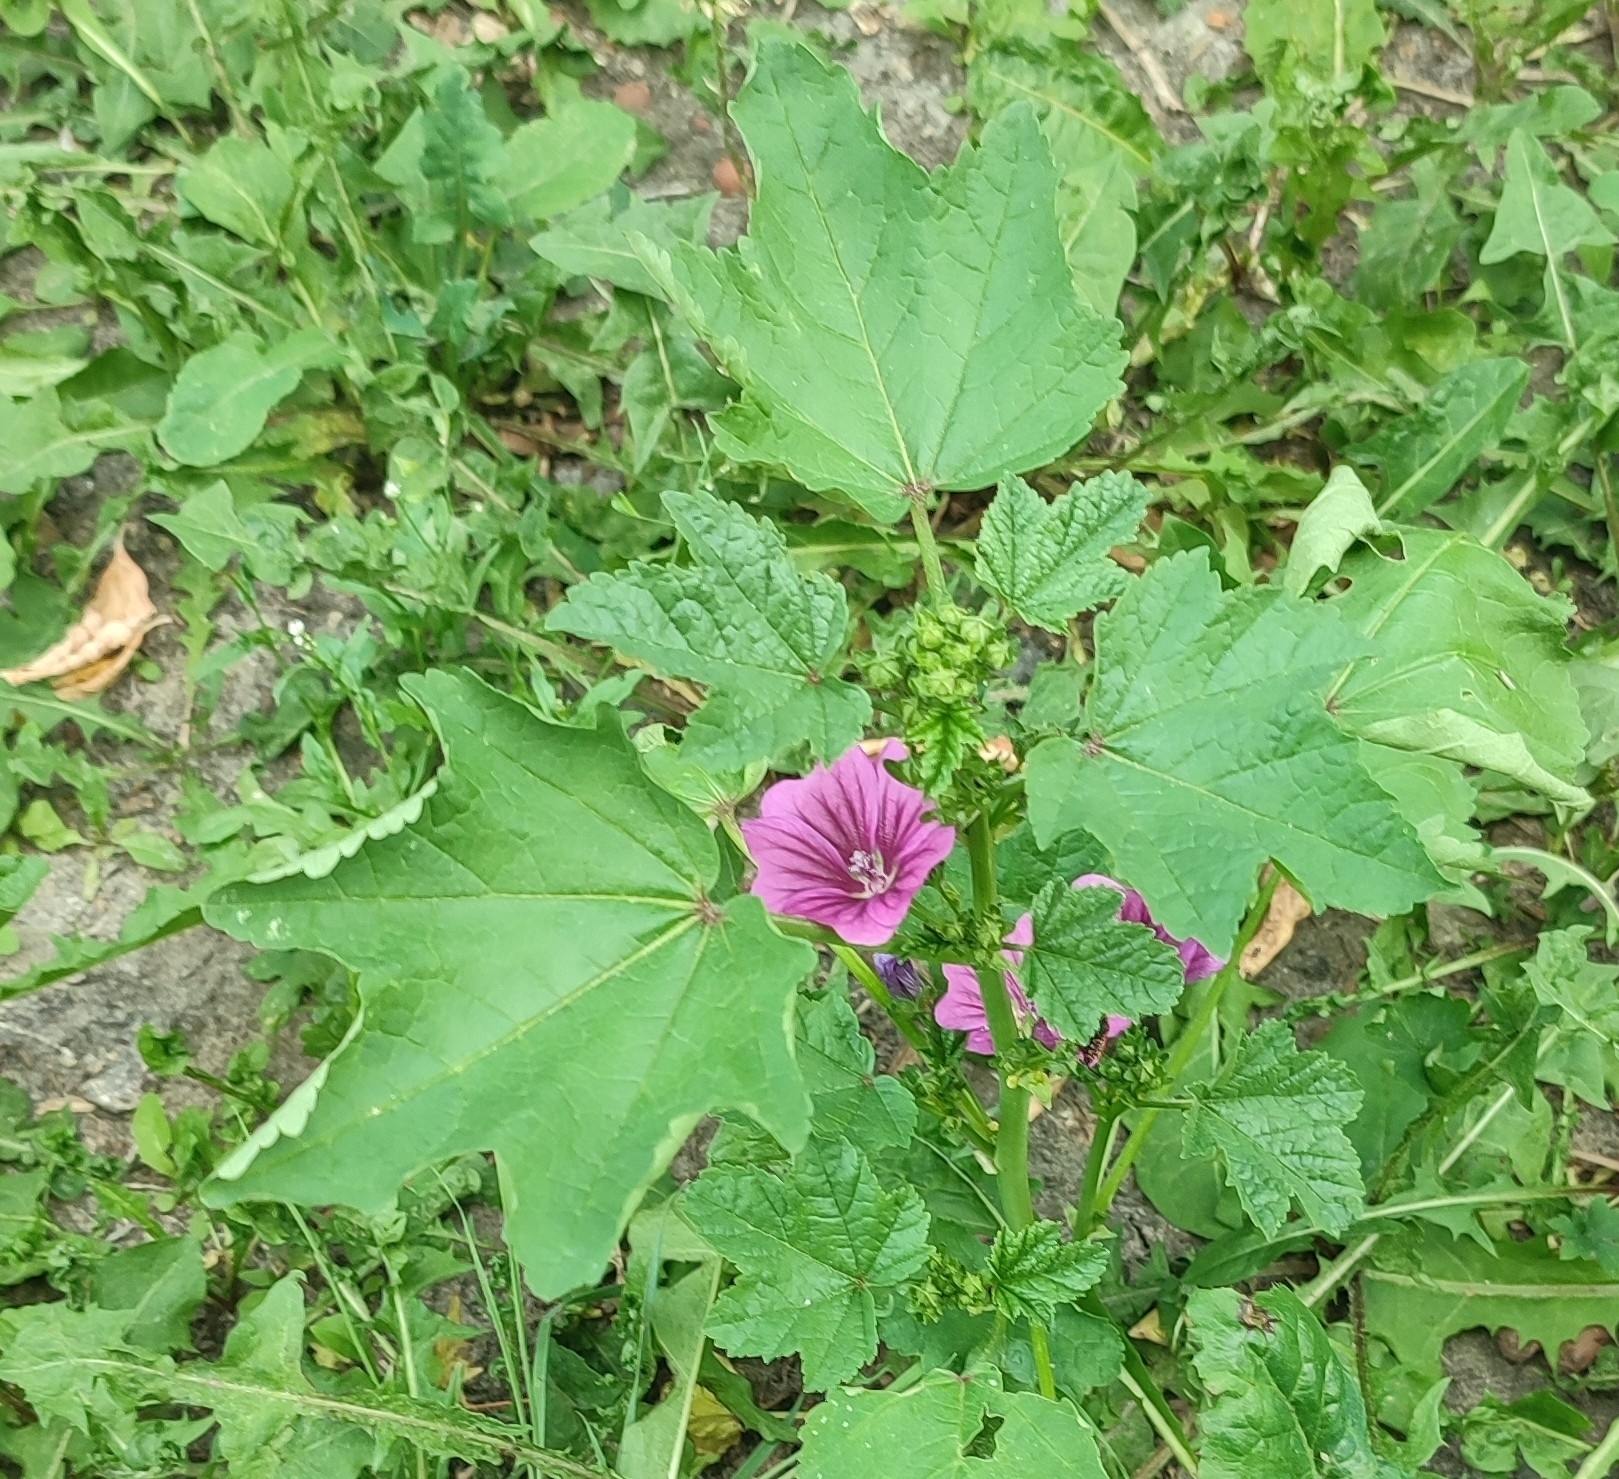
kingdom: Plantae
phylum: Tracheophyta
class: Magnoliopsida
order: Malvales
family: Malvaceae
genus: Malva
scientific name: Malva sylvestris
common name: Common mallow
